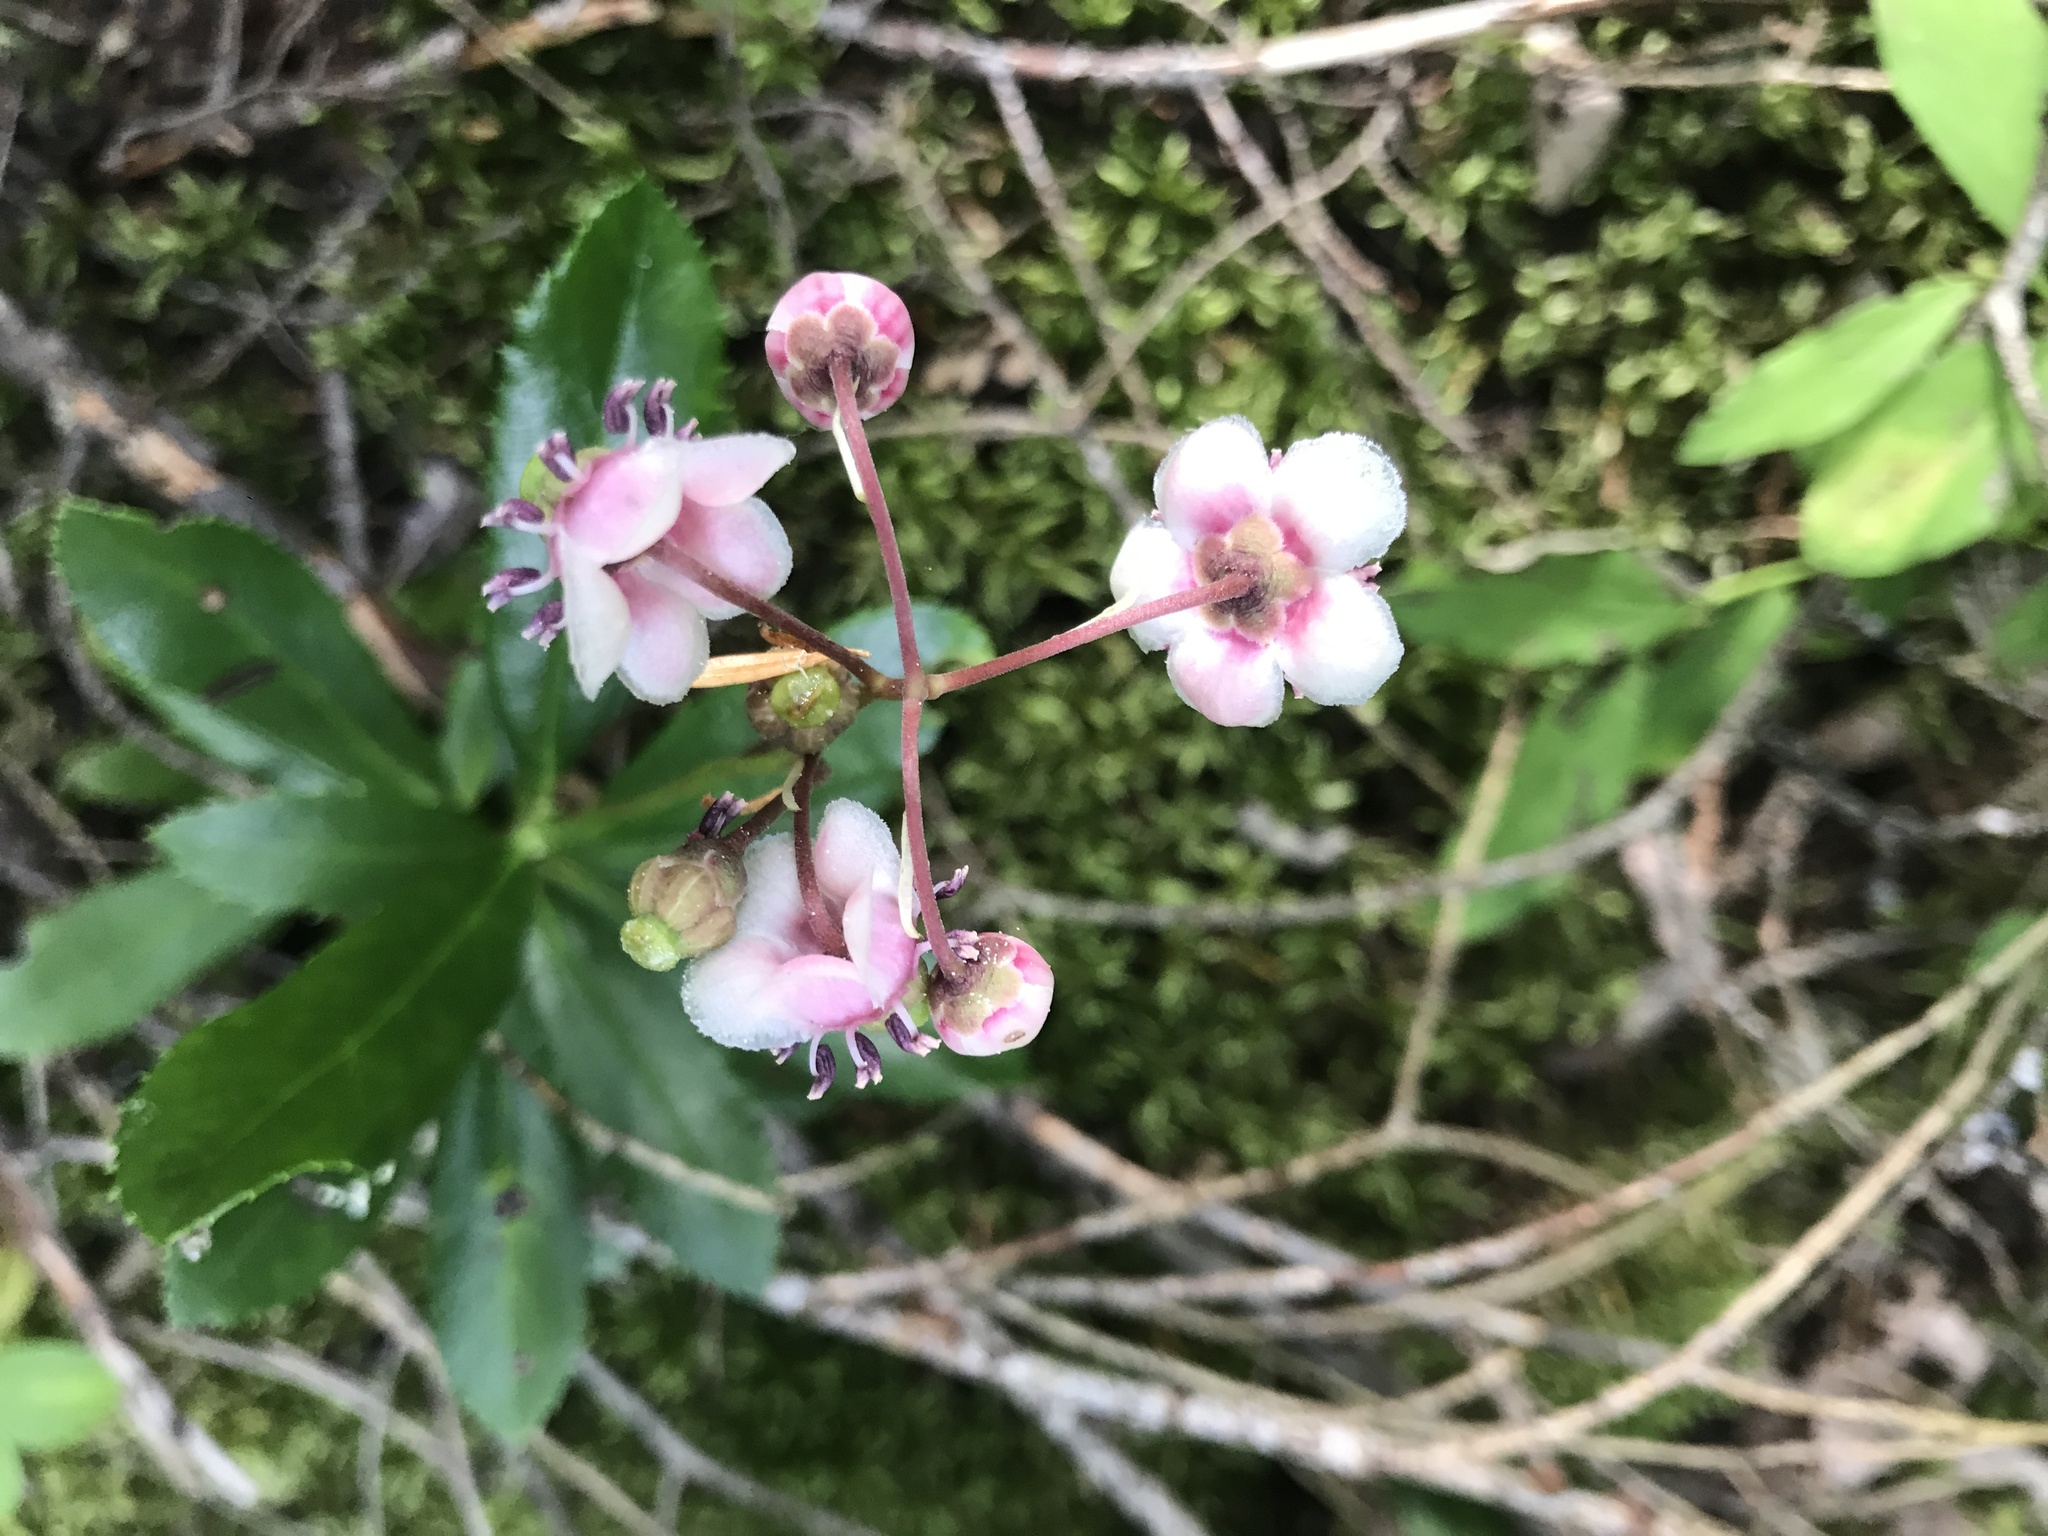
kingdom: Plantae
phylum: Tracheophyta
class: Magnoliopsida
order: Ericales
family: Ericaceae
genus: Chimaphila
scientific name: Chimaphila umbellata
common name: Pipsissewa
